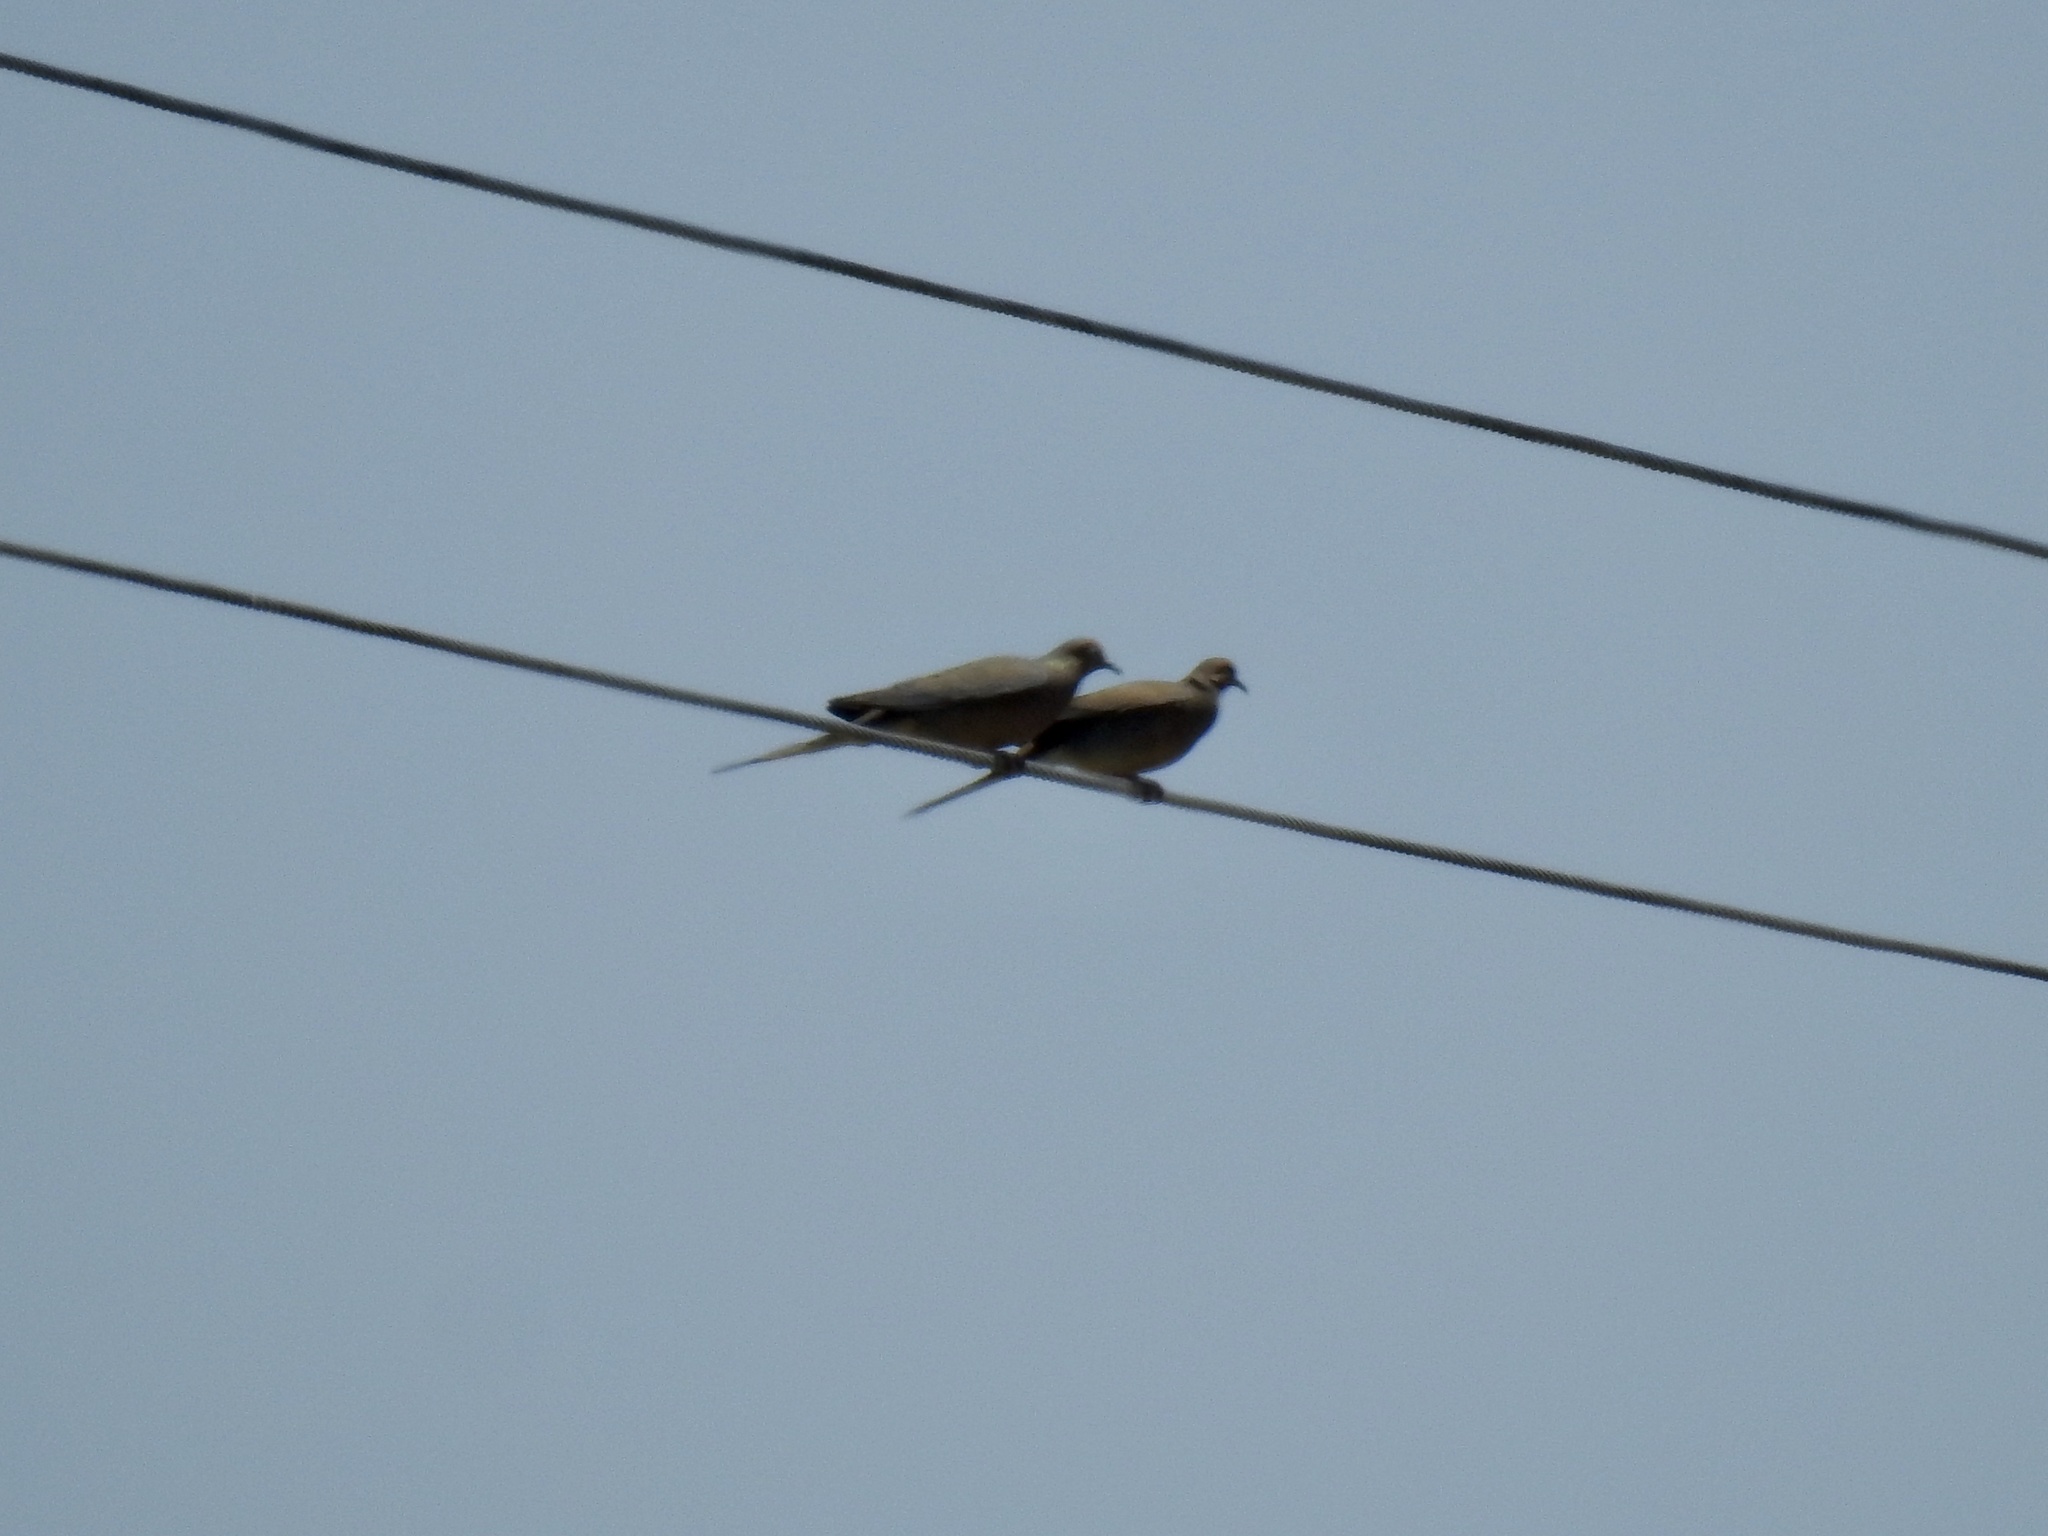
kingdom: Animalia
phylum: Chordata
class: Aves
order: Columbiformes
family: Columbidae
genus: Zenaida
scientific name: Zenaida macroura
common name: Mourning dove
